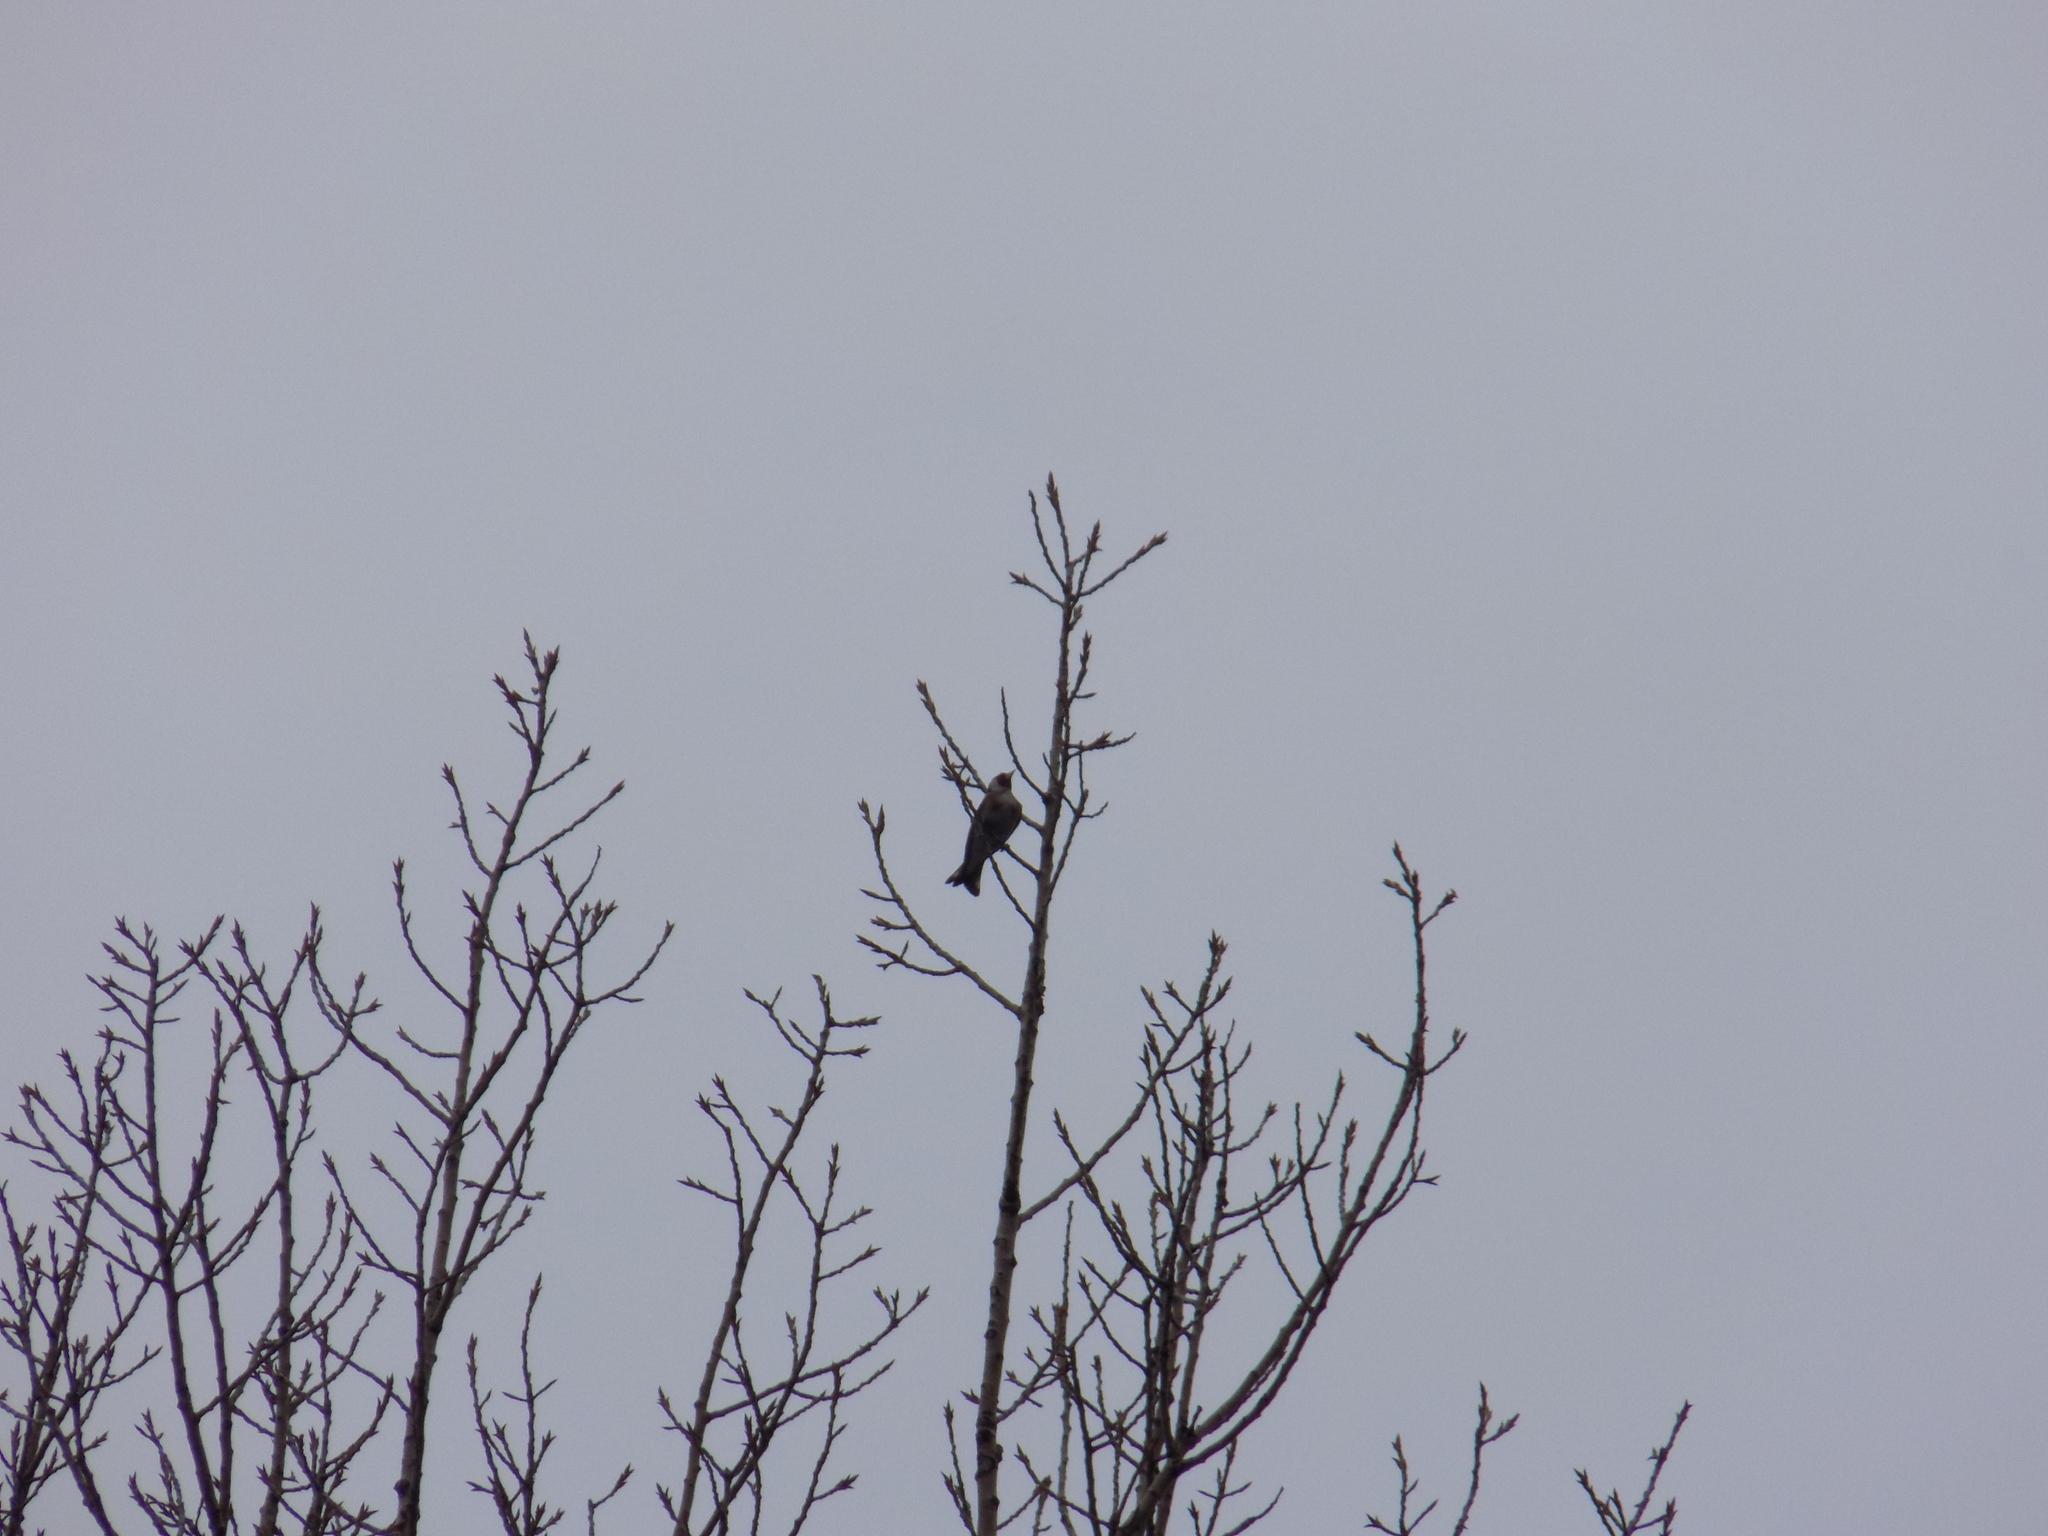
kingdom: Animalia
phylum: Chordata
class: Aves
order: Passeriformes
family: Fringillidae
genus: Carduelis
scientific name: Carduelis carduelis
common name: European goldfinch
